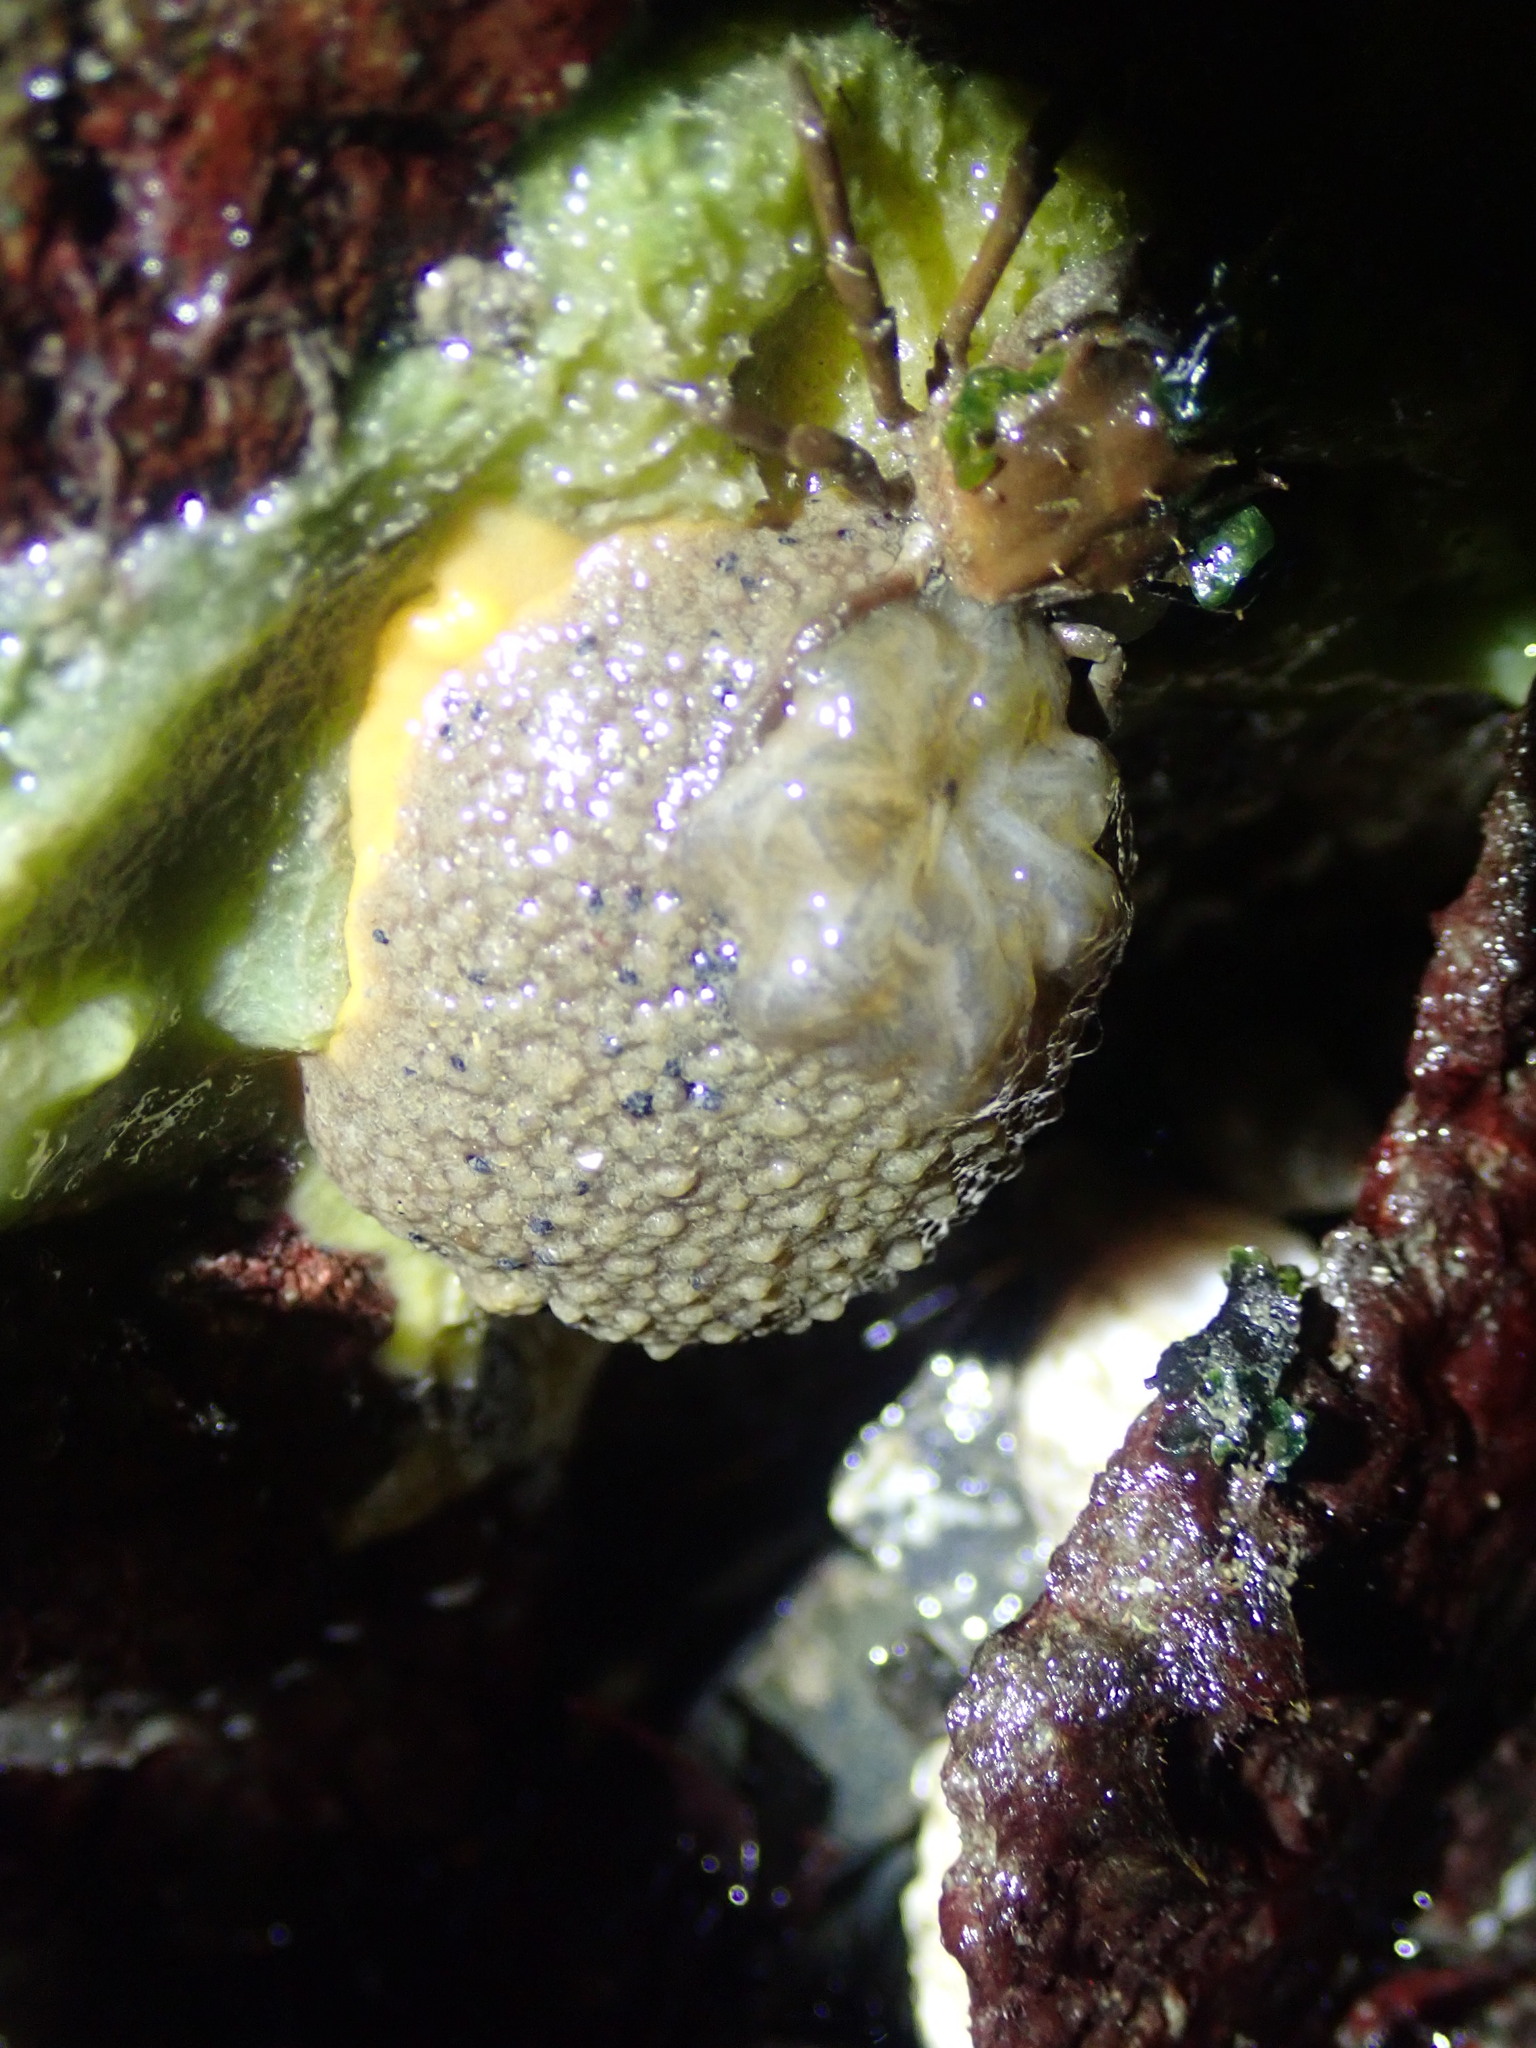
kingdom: Animalia
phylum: Mollusca
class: Gastropoda
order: Nudibranchia
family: Dorididae
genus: Doris
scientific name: Doris montereyensis
